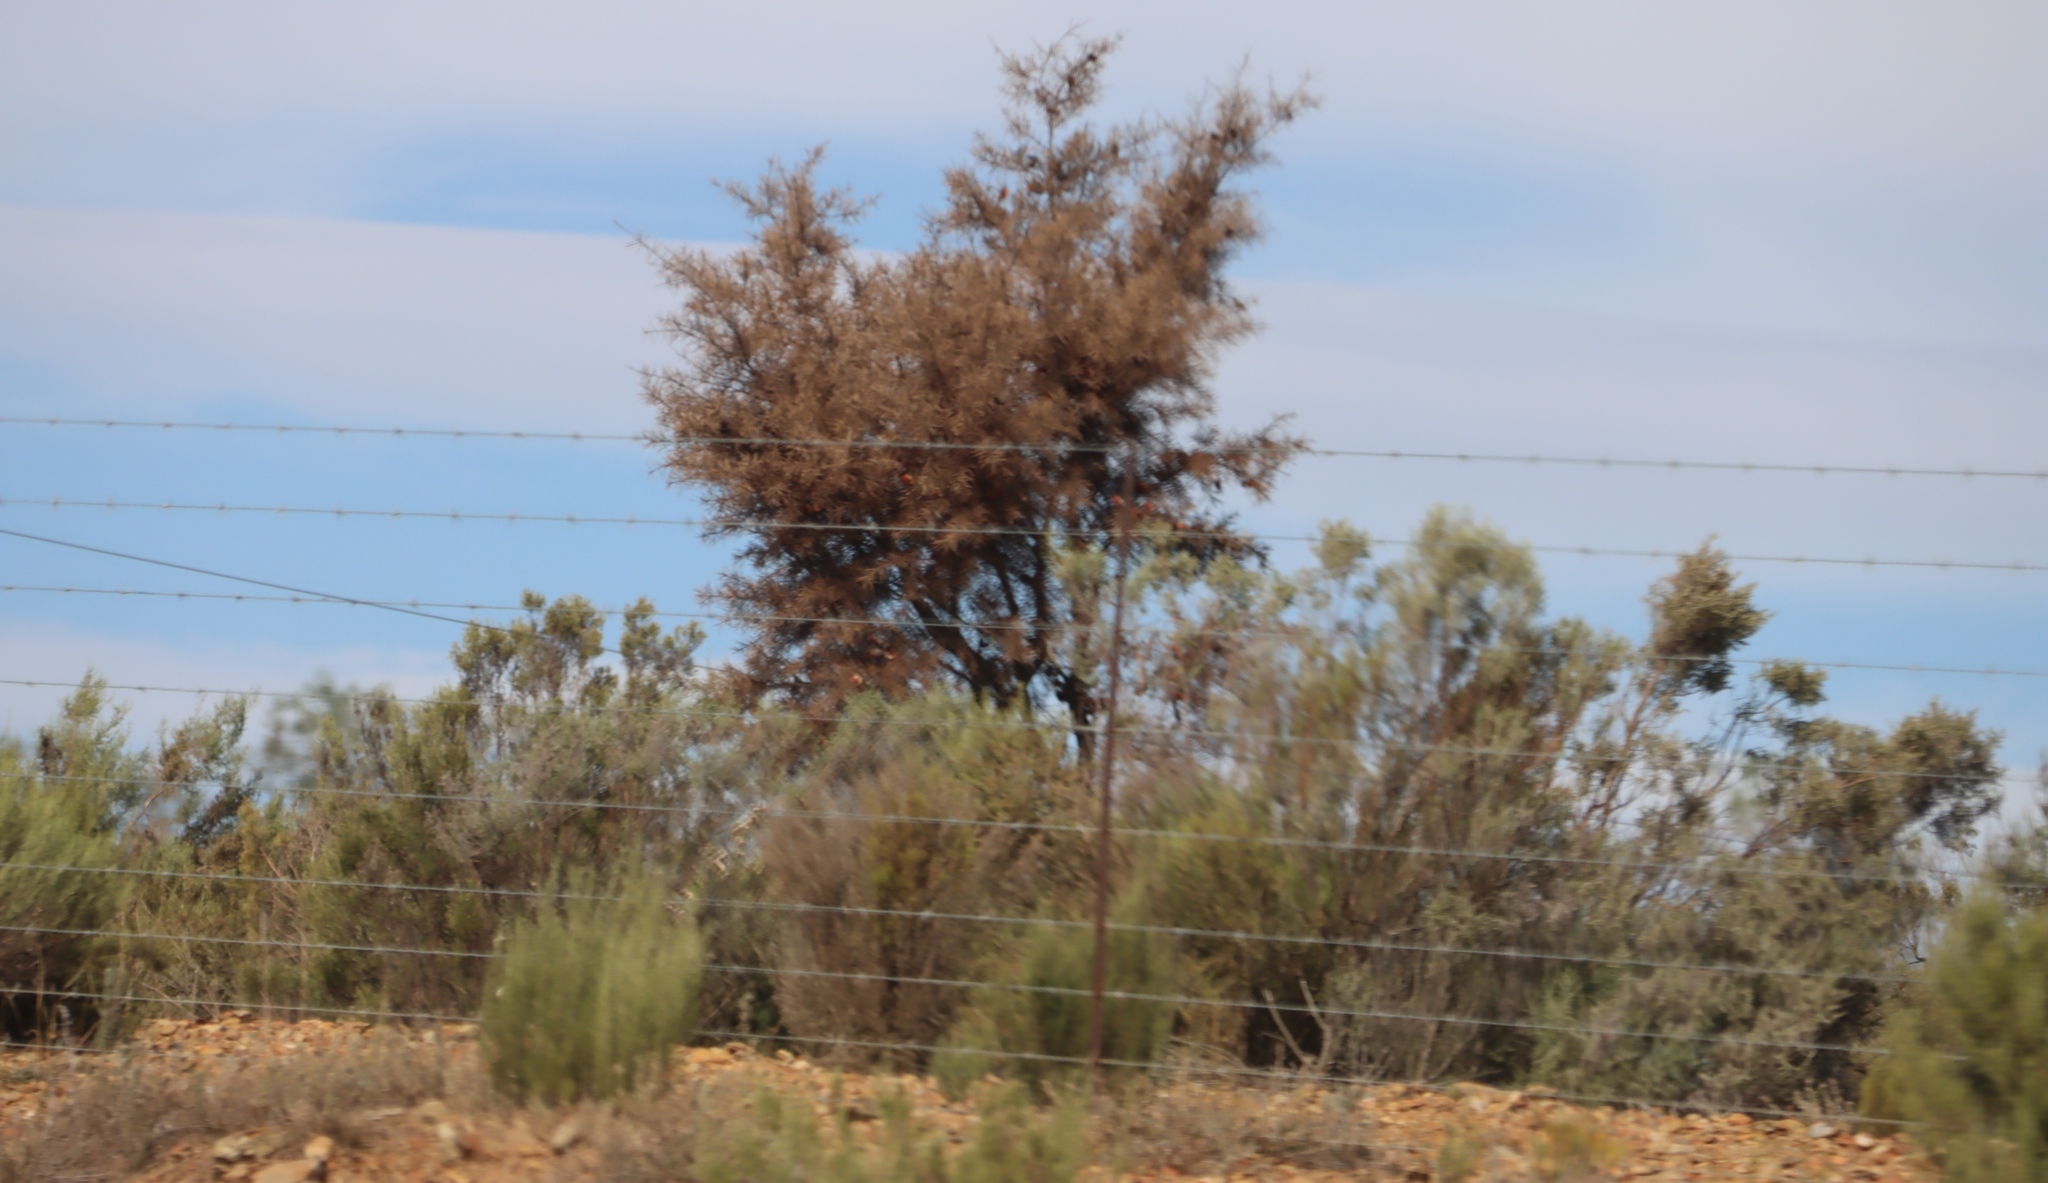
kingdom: Plantae
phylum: Tracheophyta
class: Magnoliopsida
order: Proteales
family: Proteaceae
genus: Hakea
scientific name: Hakea sericea
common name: Needle bush
